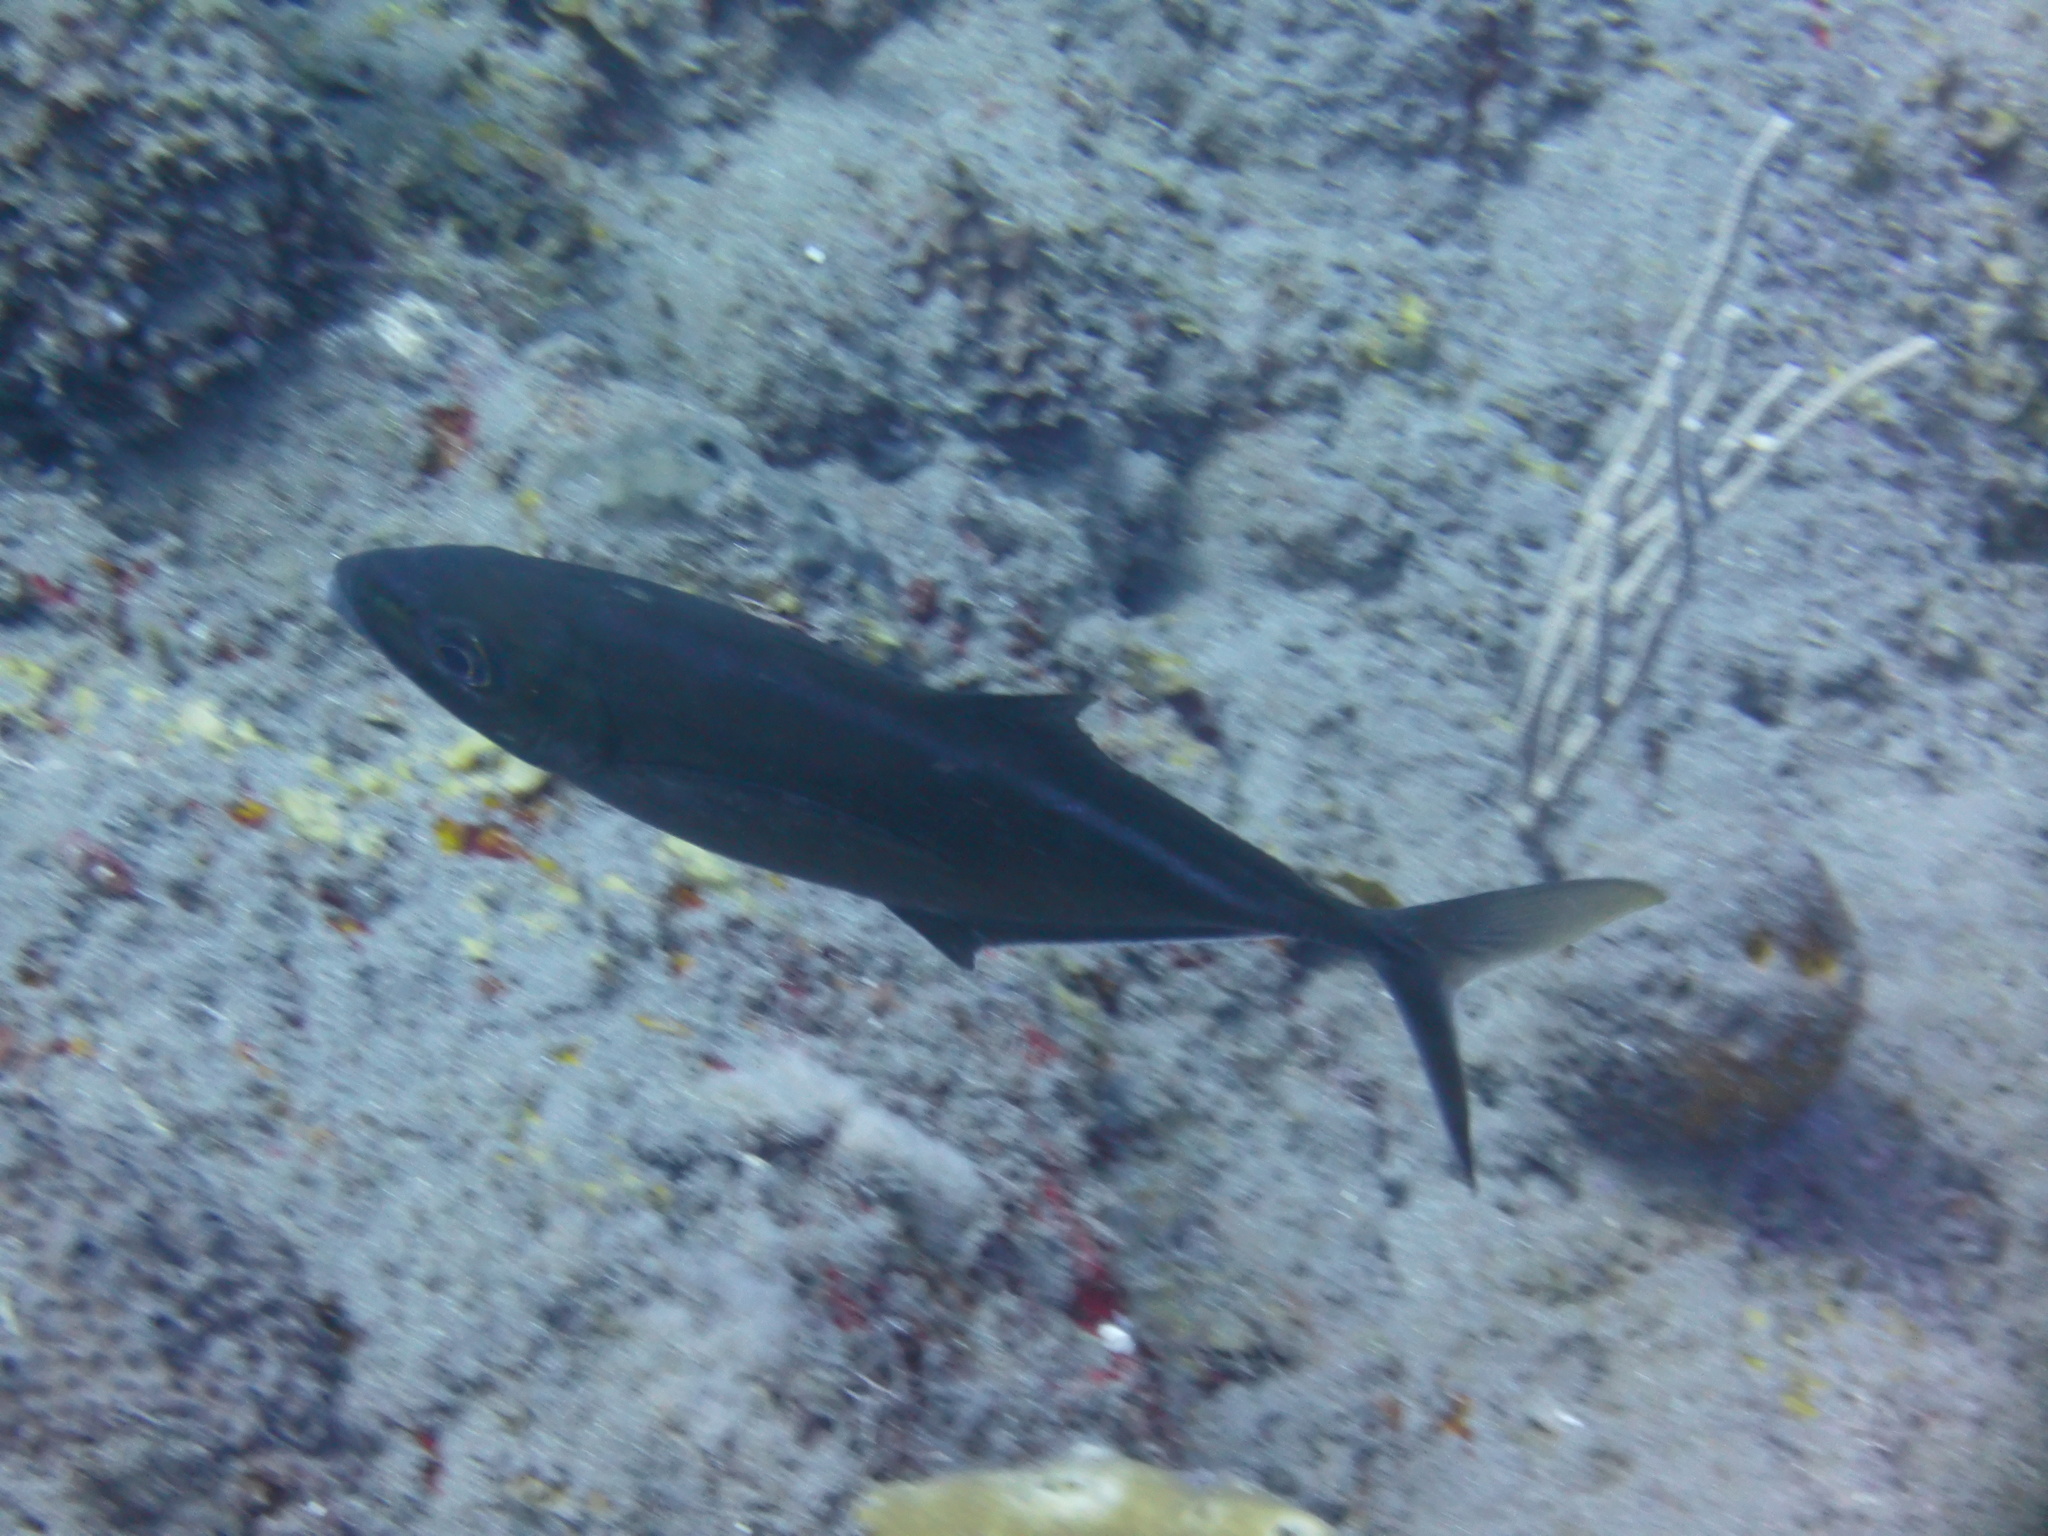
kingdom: Animalia
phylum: Chordata
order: Perciformes
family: Carangidae
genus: Caranx
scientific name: Caranx ruber
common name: Bar jack
